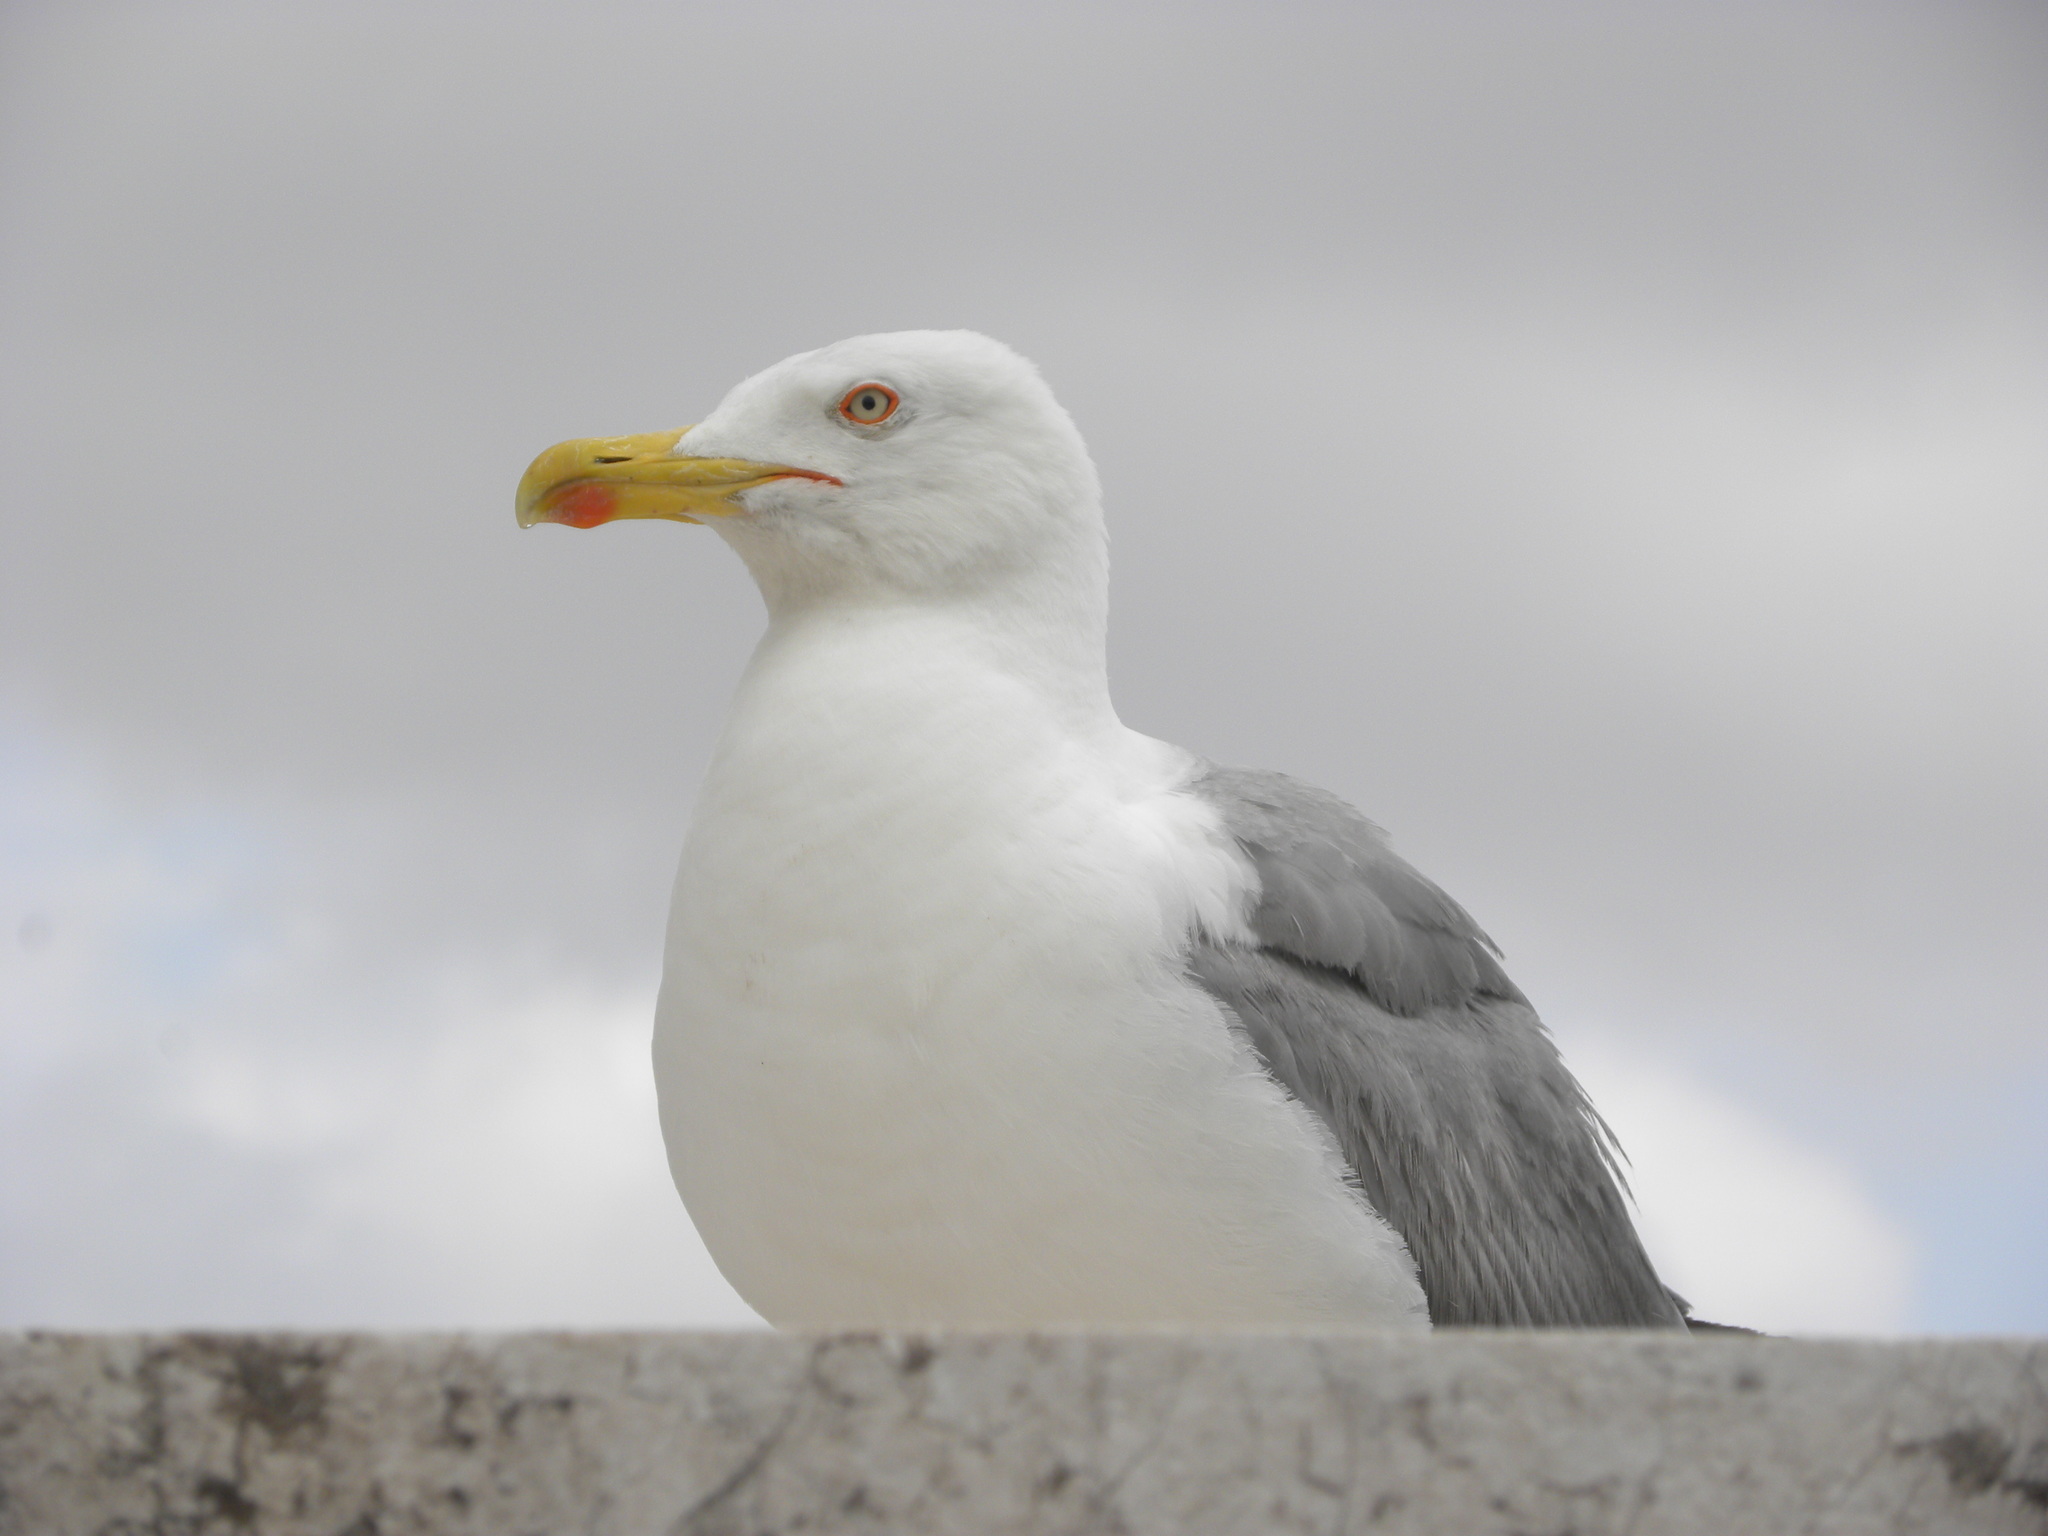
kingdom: Animalia
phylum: Chordata
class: Aves
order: Charadriiformes
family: Laridae
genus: Larus
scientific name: Larus michahellis
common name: Yellow-legged gull
